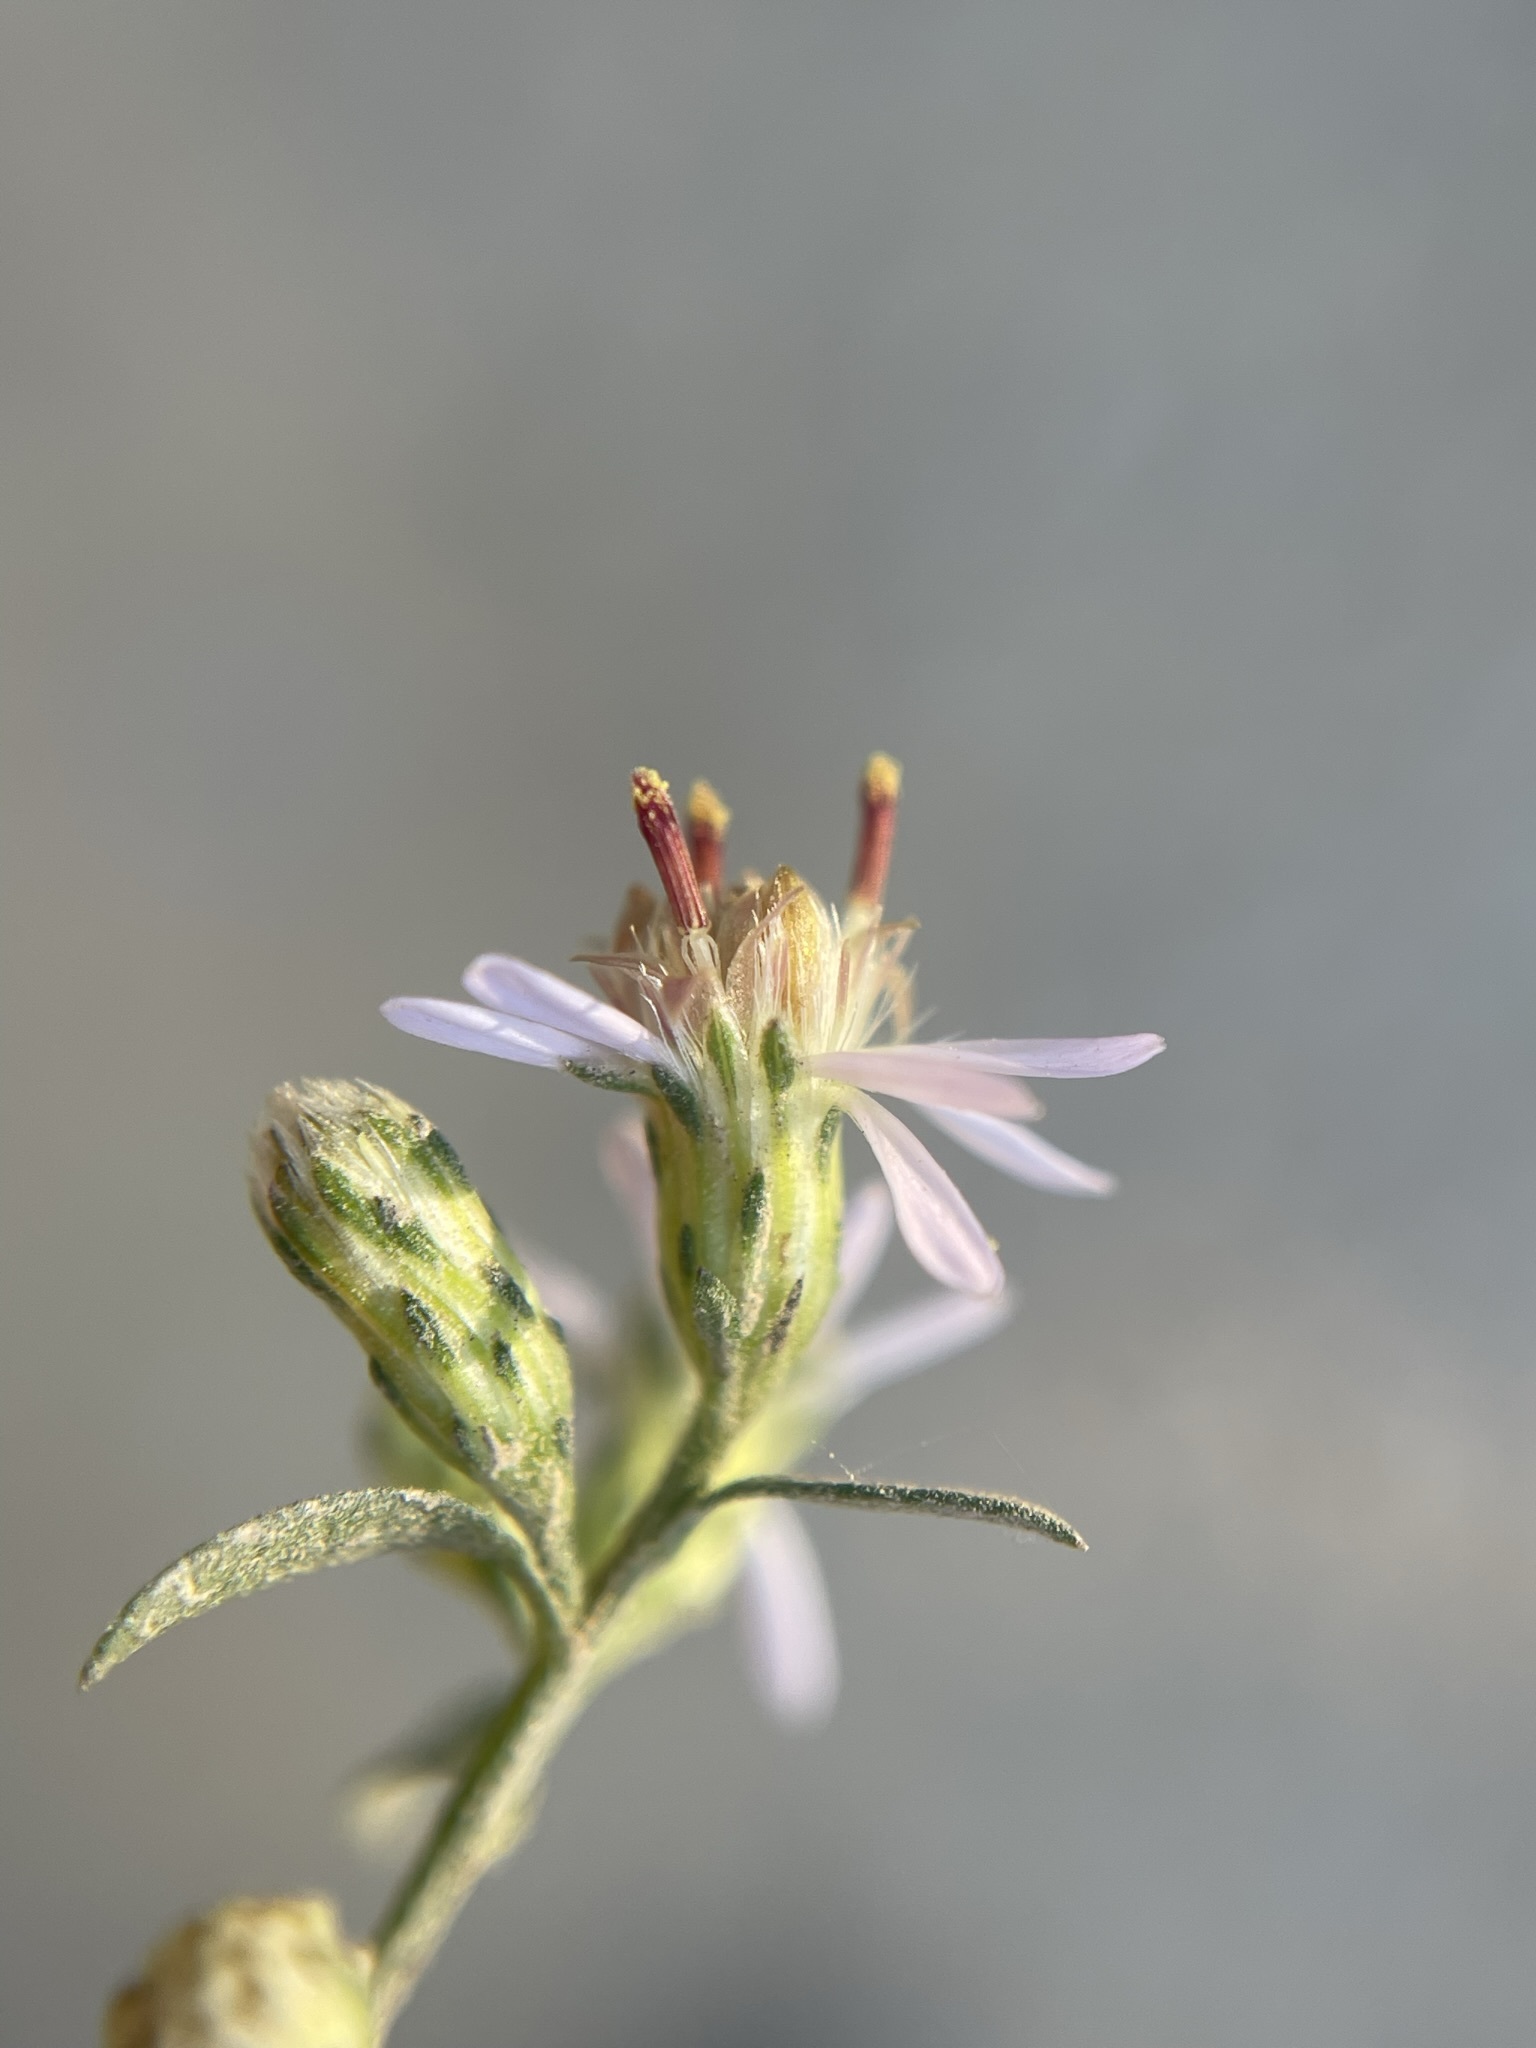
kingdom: Plantae
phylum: Tracheophyta
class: Magnoliopsida
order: Asterales
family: Asteraceae
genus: Symphyotrichum
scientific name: Symphyotrichum lateriflorum
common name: Calico aster
